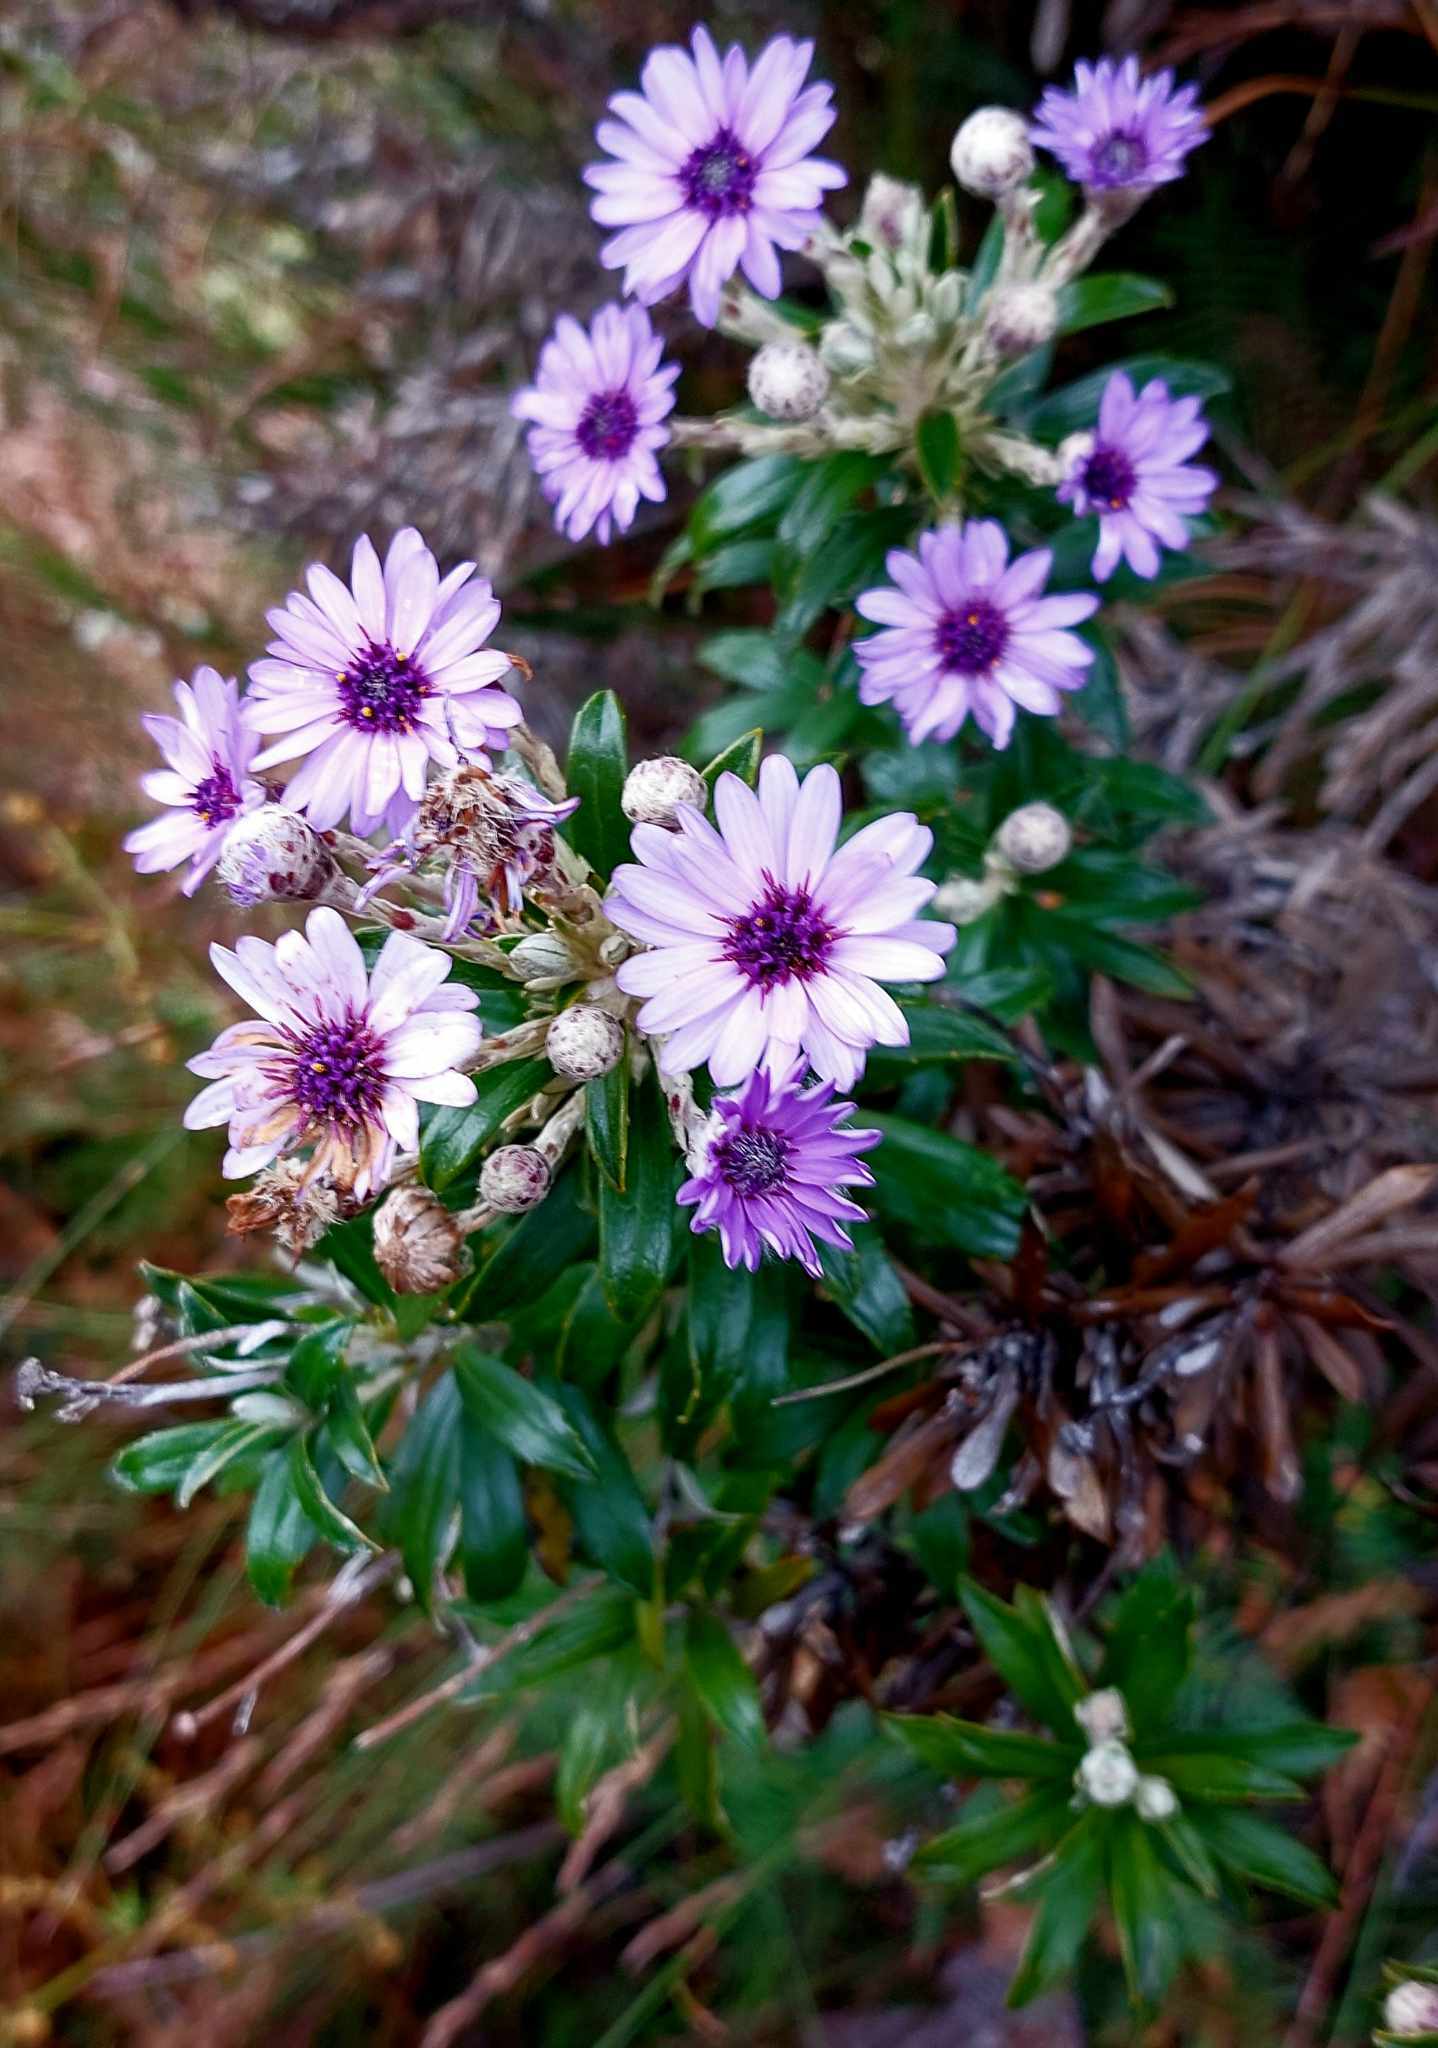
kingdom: Plantae
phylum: Tracheophyta
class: Magnoliopsida
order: Asterales
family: Asteraceae
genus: Macrolearia
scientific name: Macrolearia semidentata
